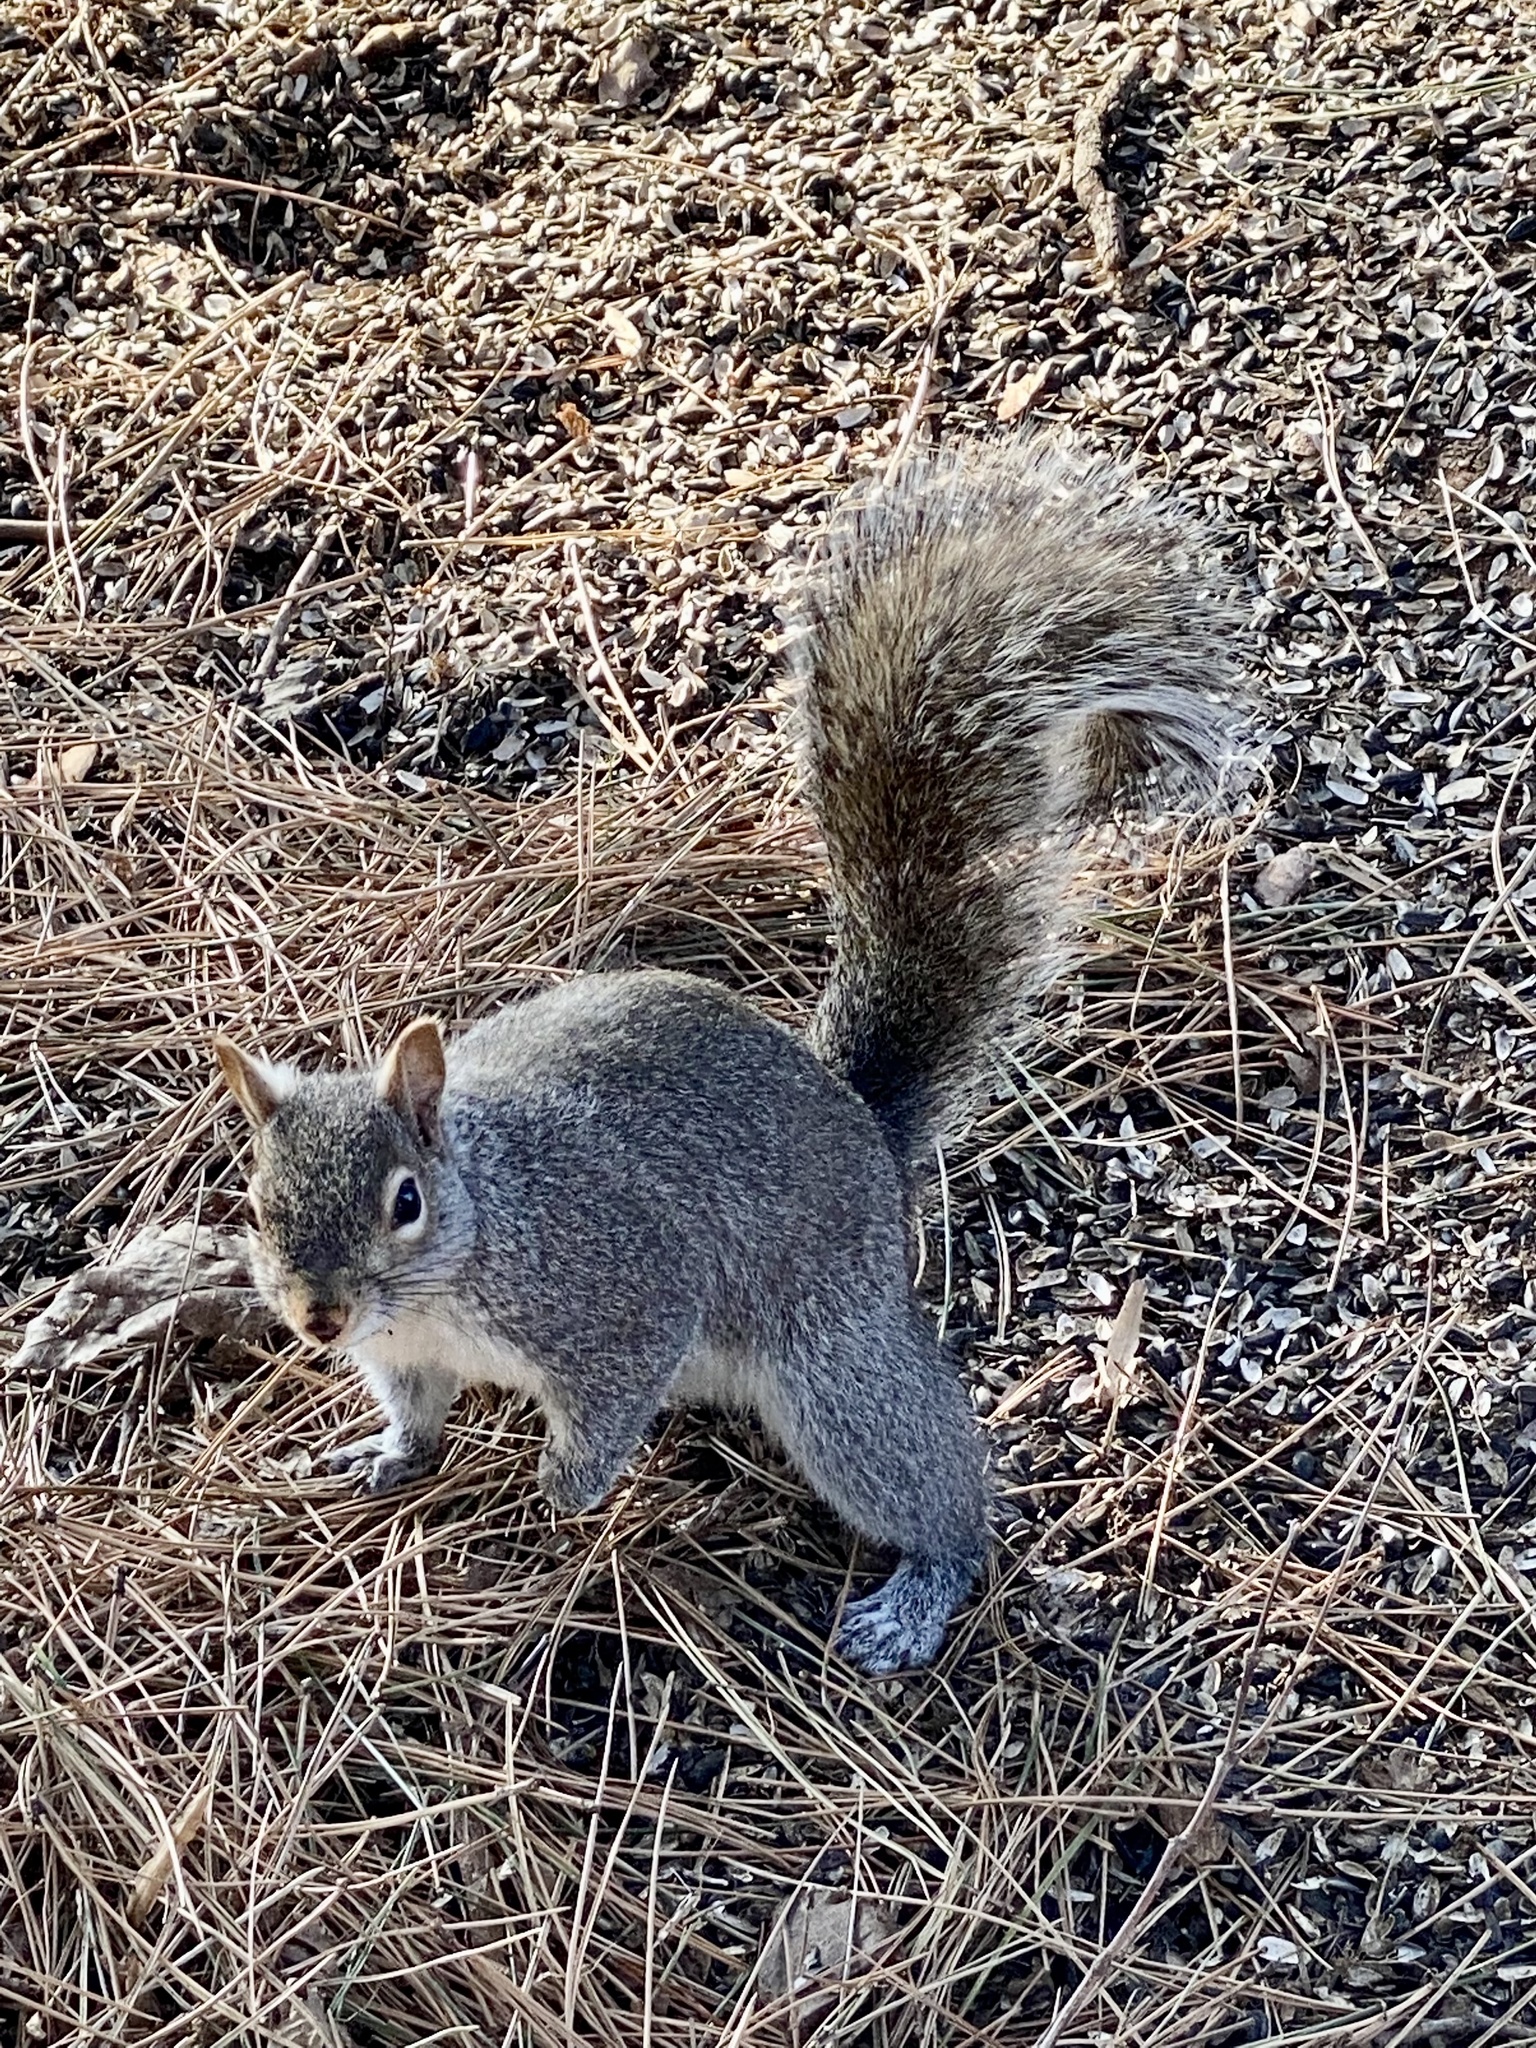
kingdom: Animalia
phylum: Chordata
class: Mammalia
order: Rodentia
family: Sciuridae
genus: Sciurus
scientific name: Sciurus carolinensis
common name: Eastern gray squirrel
